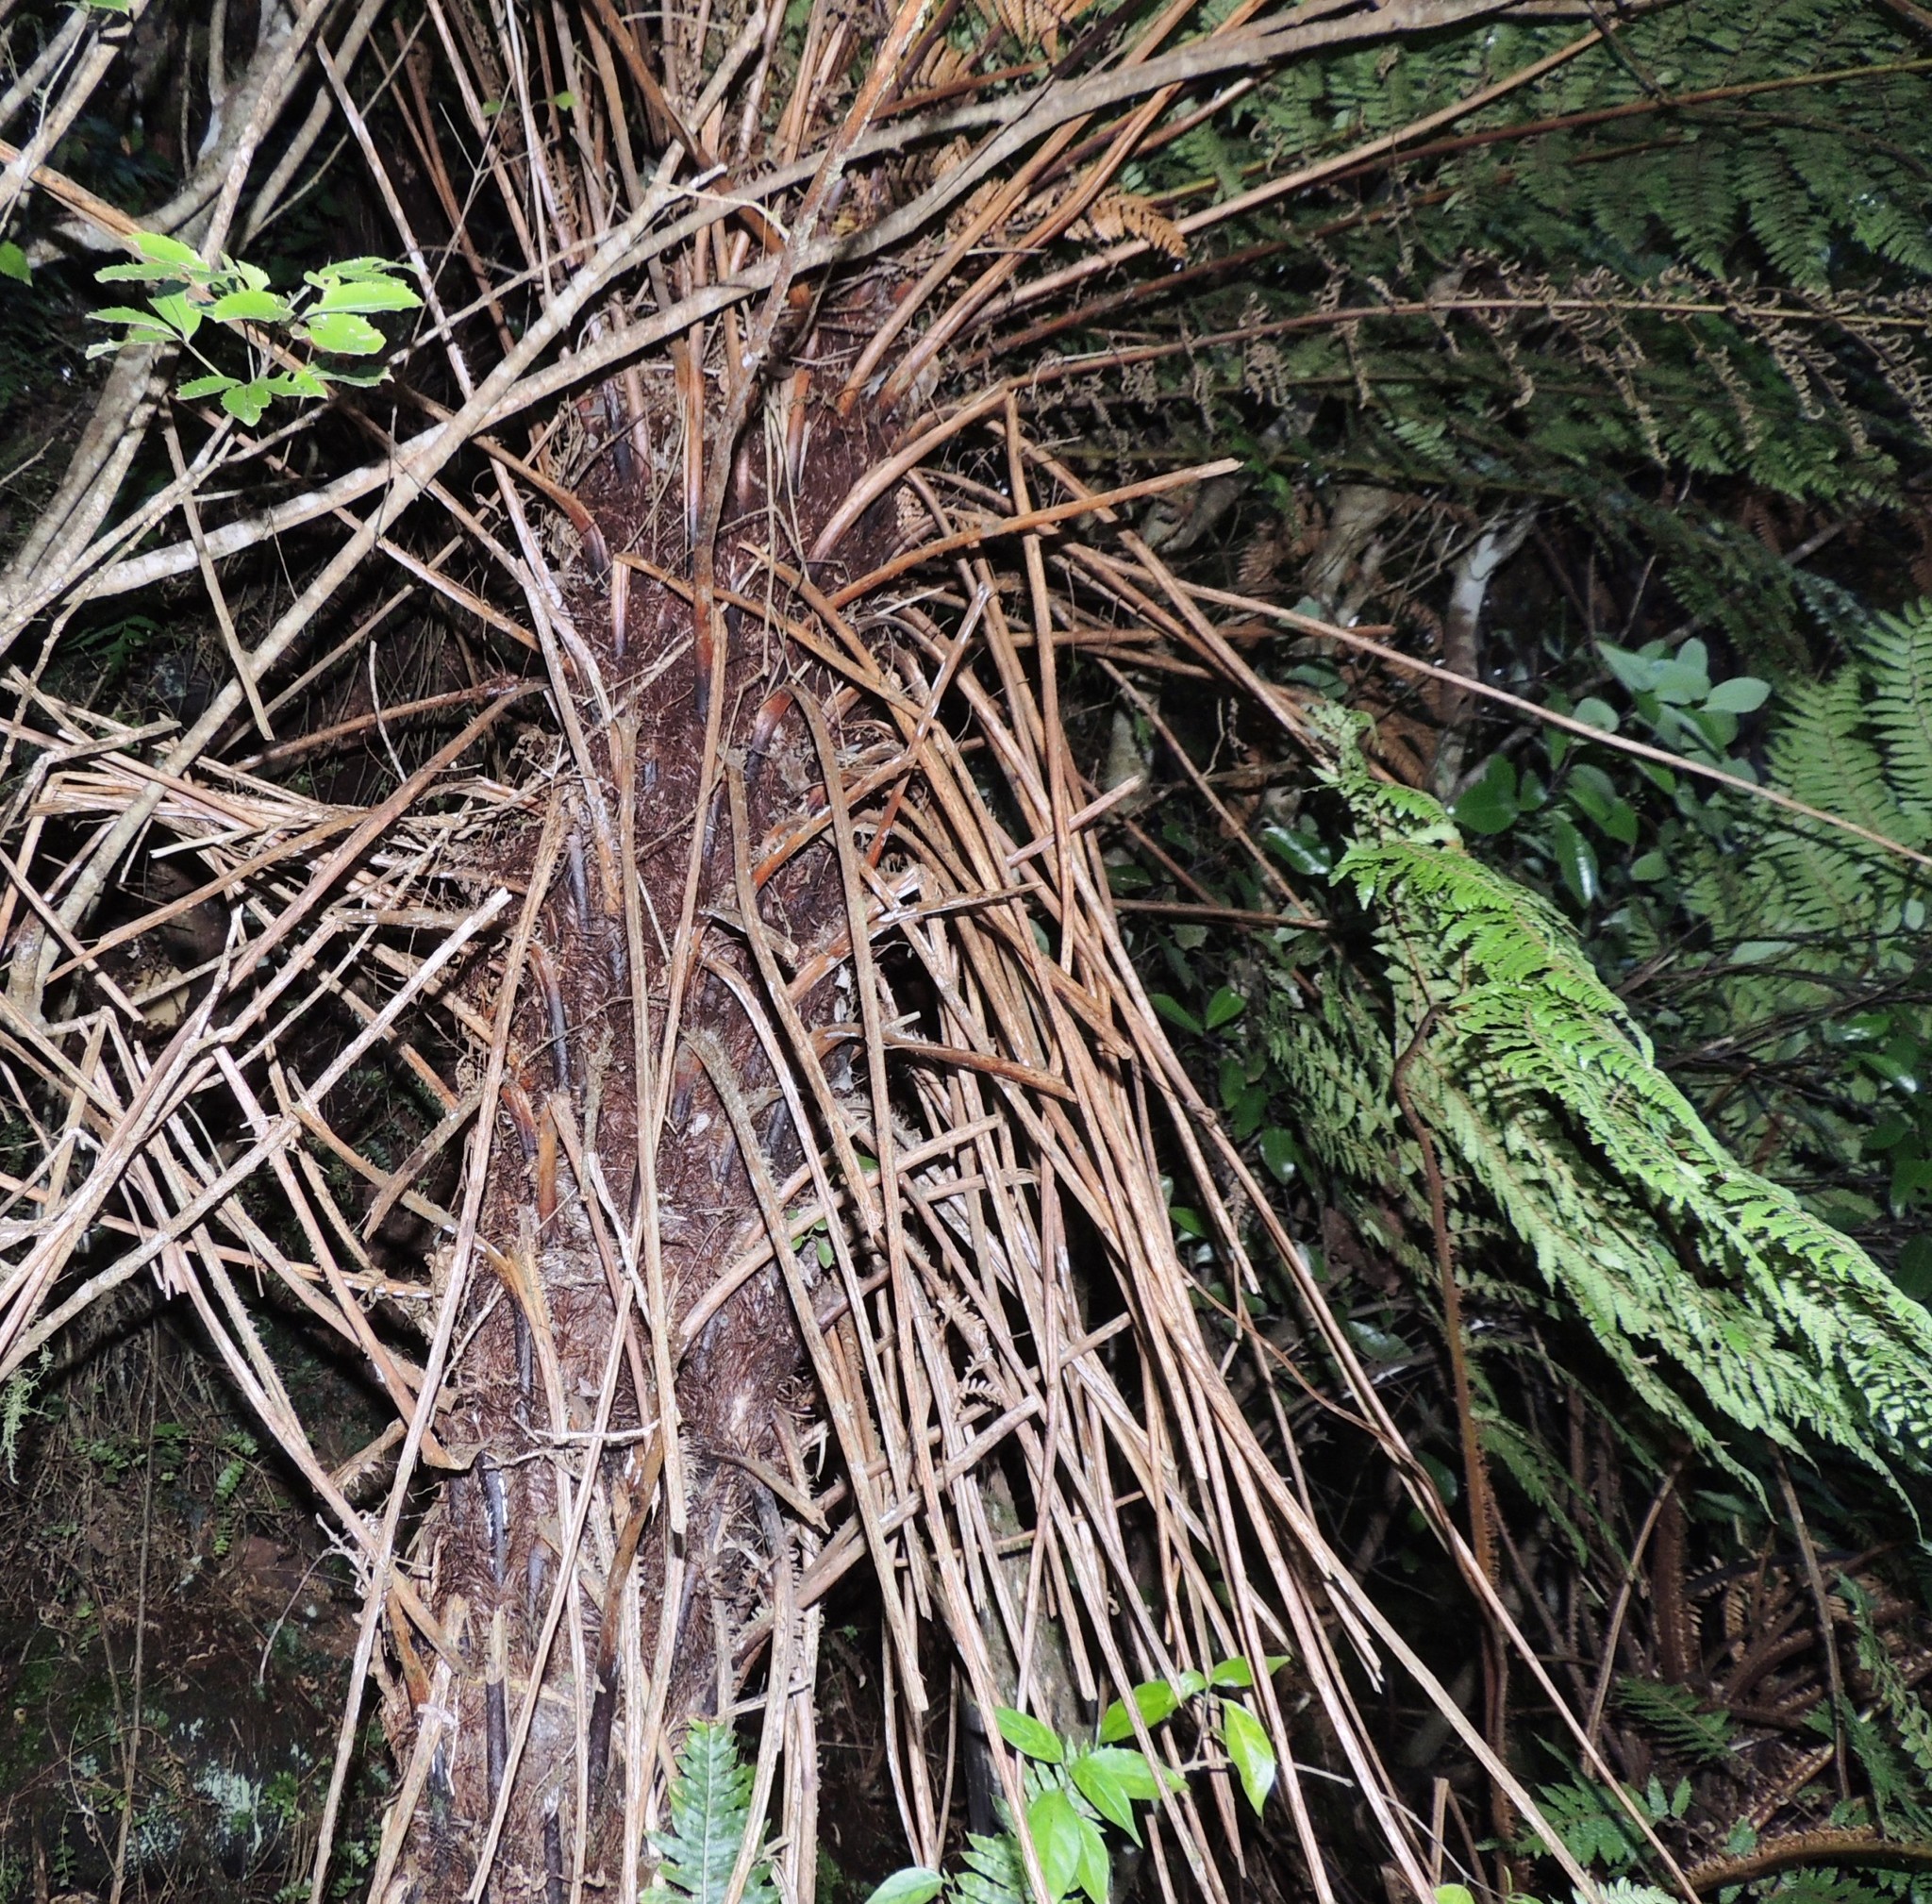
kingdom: Plantae
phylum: Tracheophyta
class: Polypodiopsida
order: Cyatheales
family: Cyatheaceae
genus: Alsophila
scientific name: Alsophila smithii
